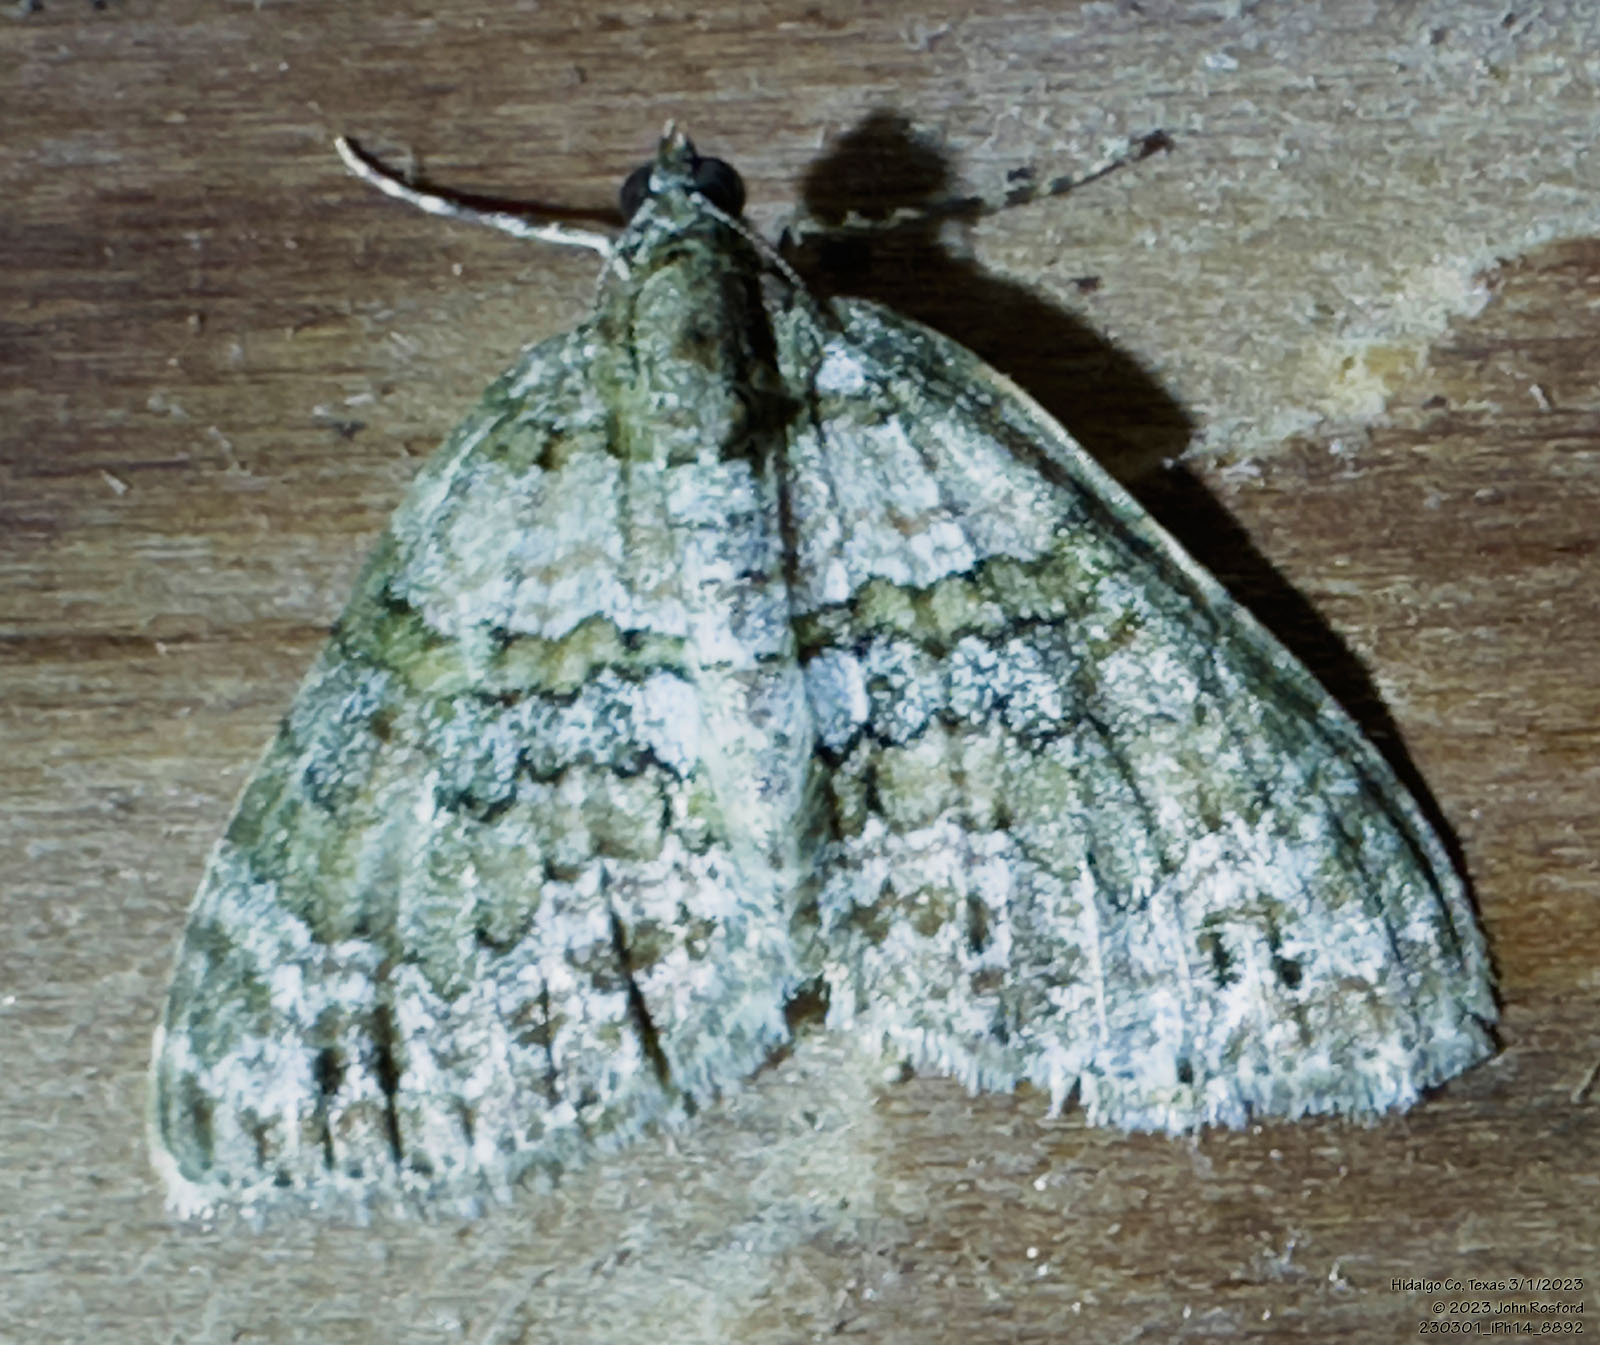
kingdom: Animalia
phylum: Arthropoda
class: Insecta
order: Lepidoptera
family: Geometridae
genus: Hammaptera
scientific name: Hammaptera parinotata
